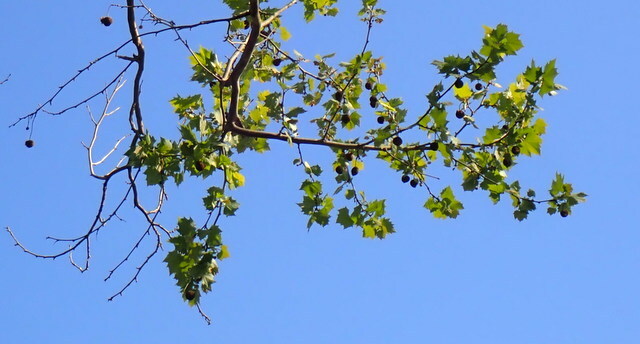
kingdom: Plantae
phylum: Tracheophyta
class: Magnoliopsida
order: Proteales
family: Platanaceae
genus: Platanus
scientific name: Platanus occidentalis
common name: American sycamore
